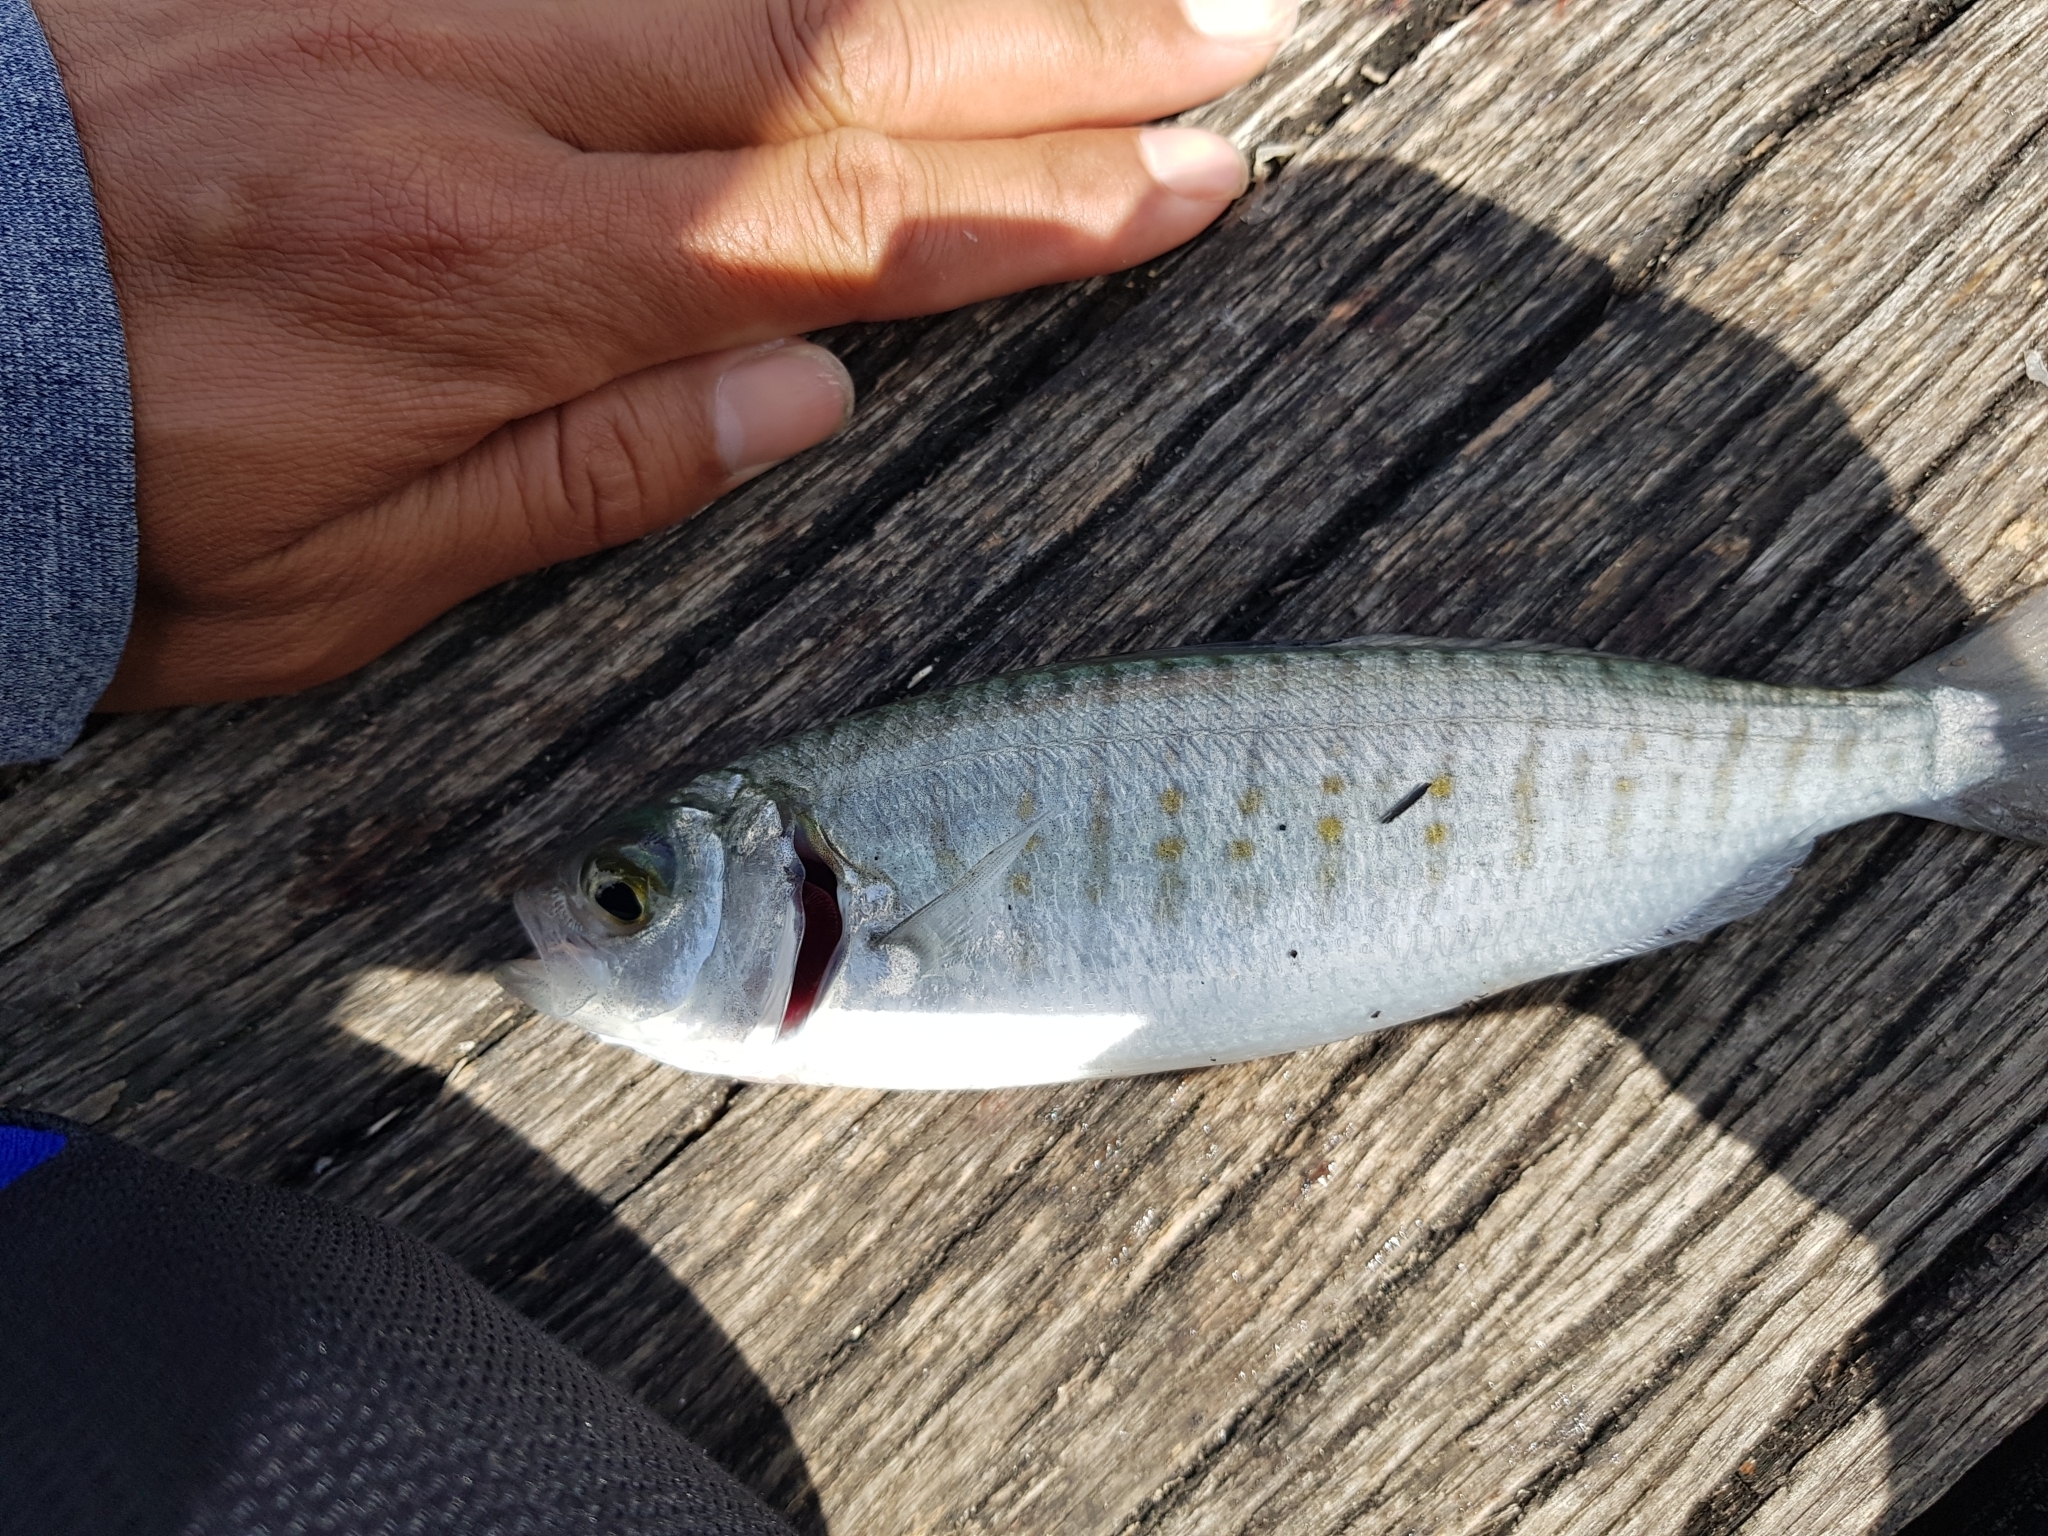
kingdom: Animalia
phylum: Chordata
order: Perciformes
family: Arripidae
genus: Arripis
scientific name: Arripis georgianus
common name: Australian herring
